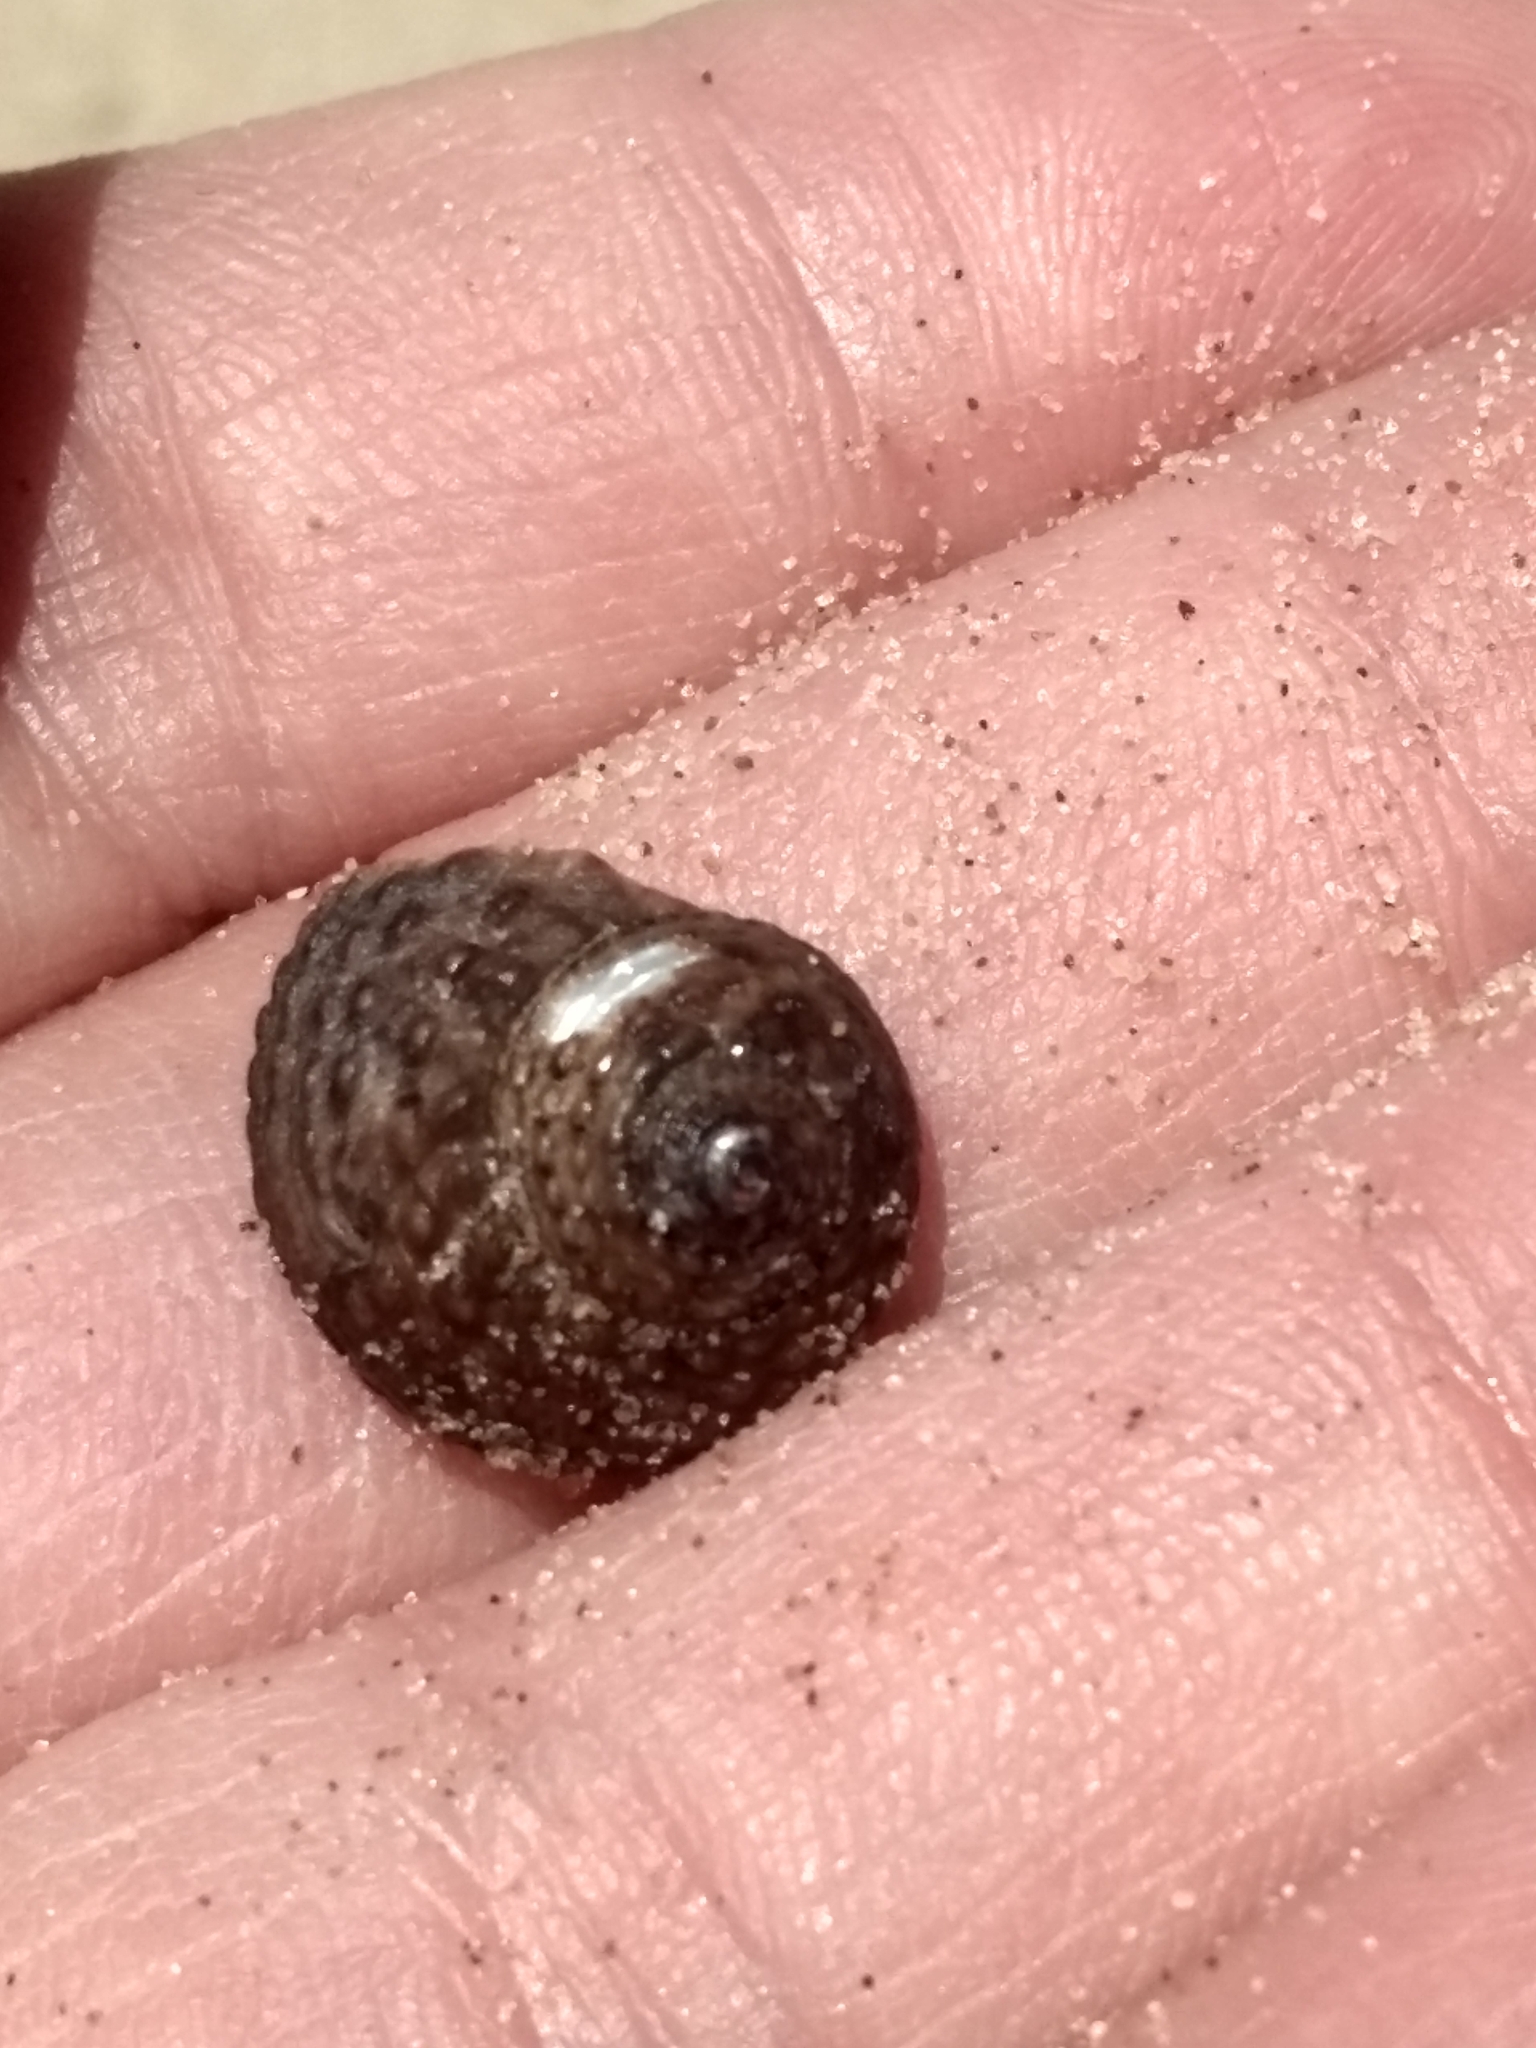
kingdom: Animalia
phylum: Mollusca
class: Gastropoda
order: Trochida
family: Tegulidae
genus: Tegula
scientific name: Tegula eiseni
